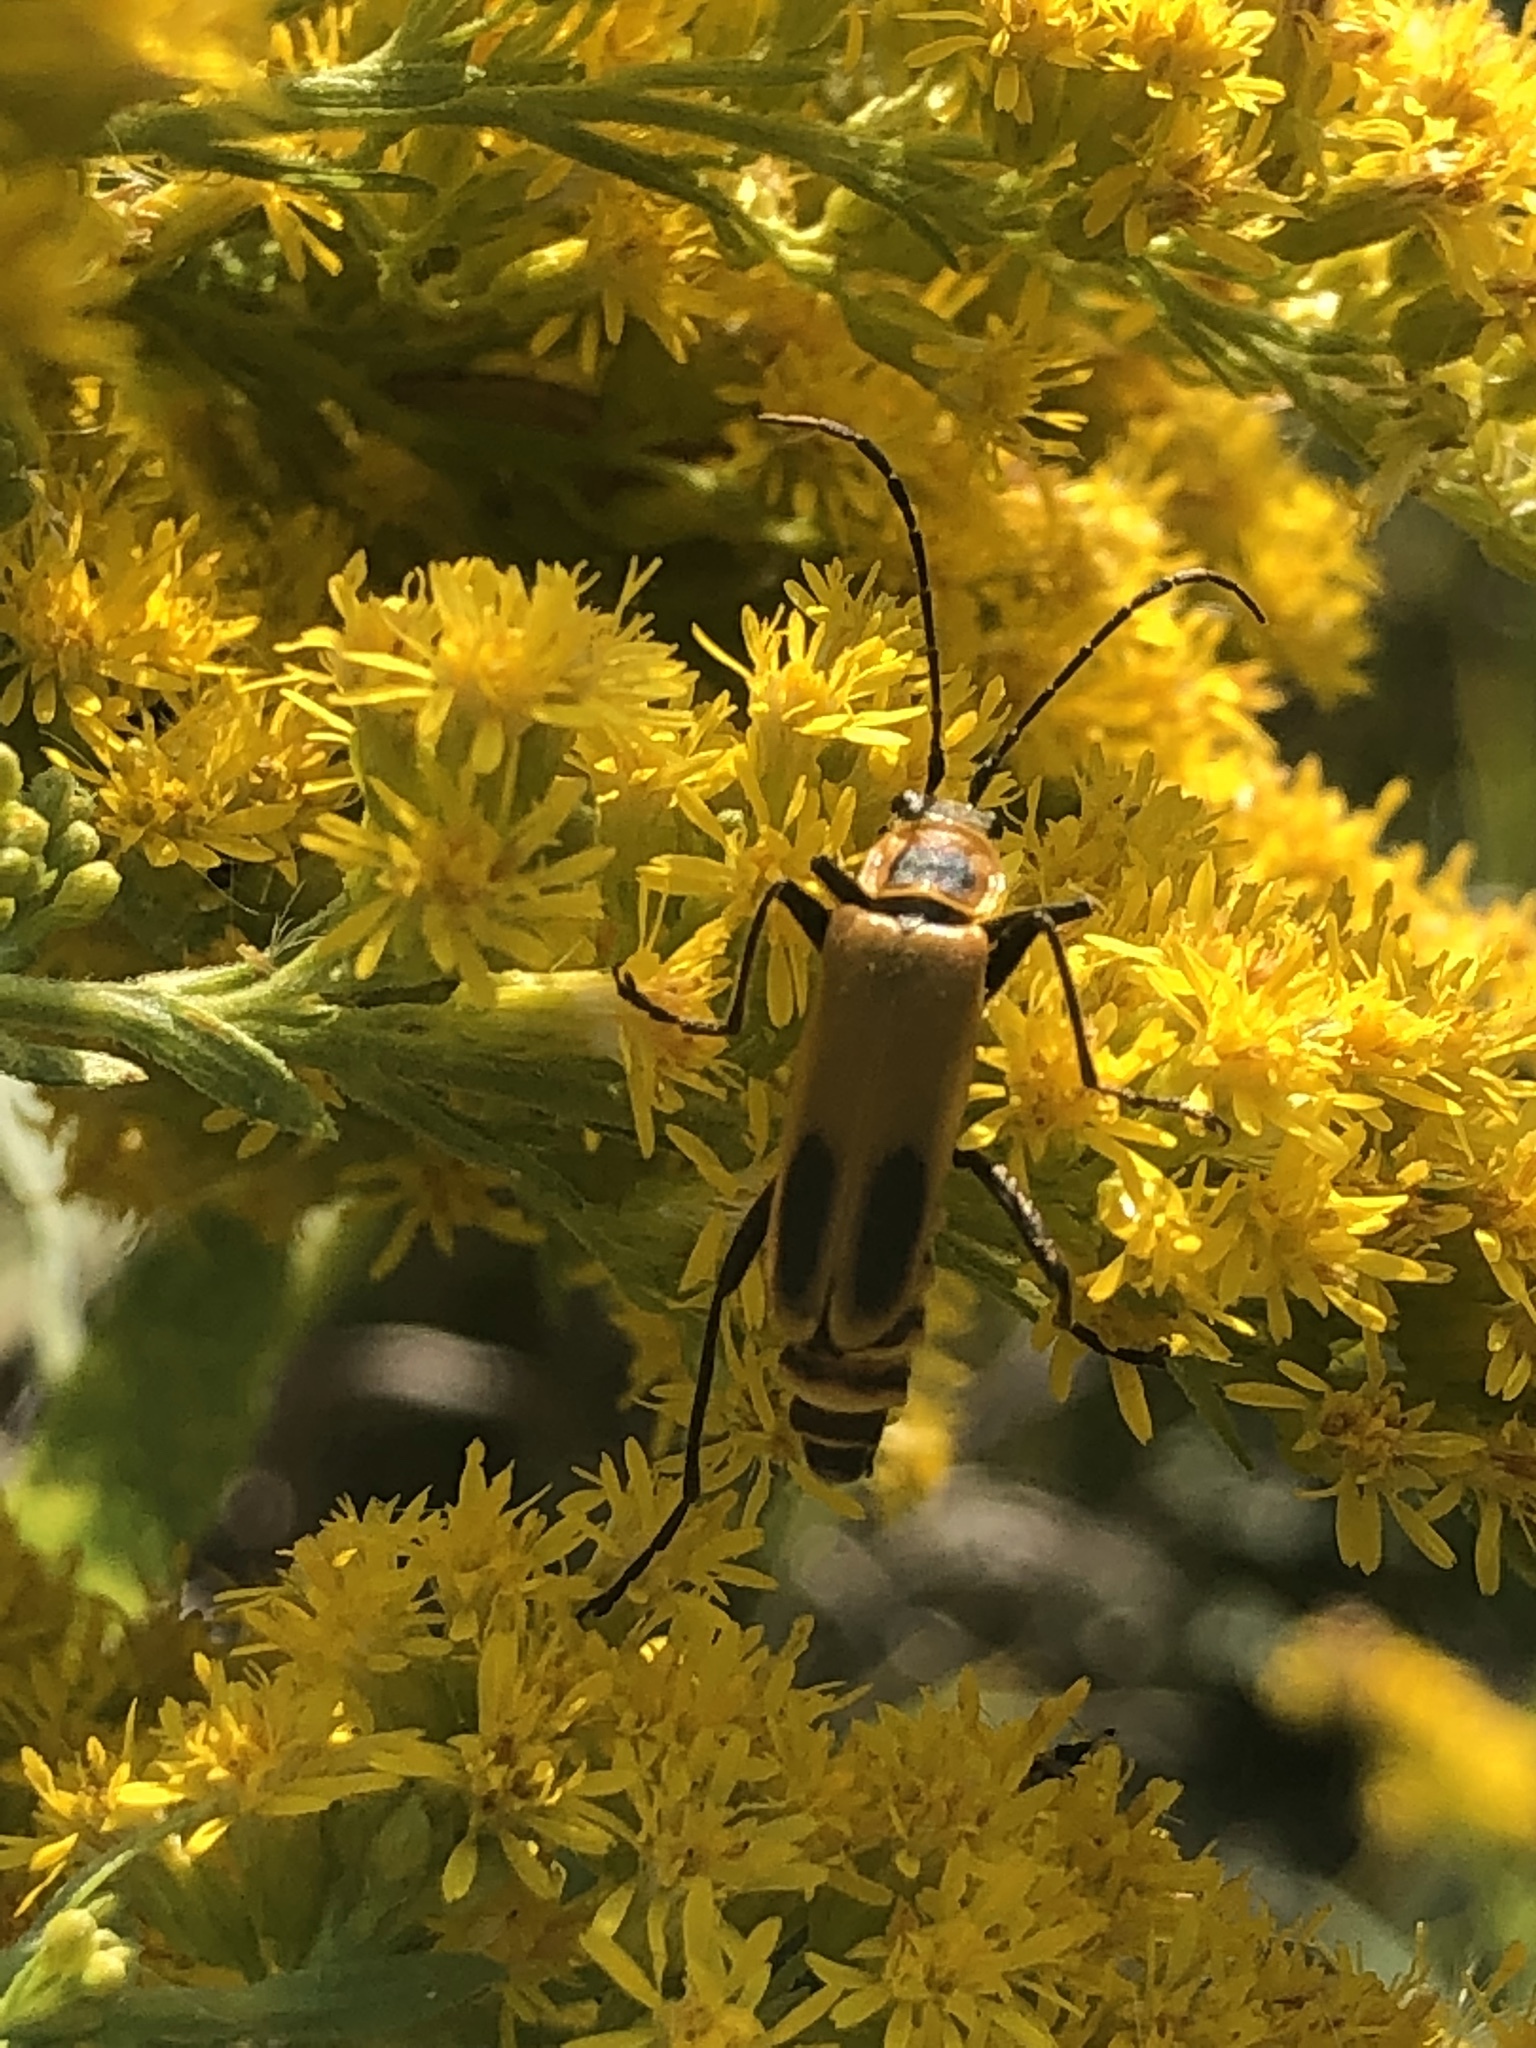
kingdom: Animalia
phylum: Arthropoda
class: Insecta
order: Coleoptera
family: Cantharidae
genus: Chauliognathus
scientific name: Chauliognathus pensylvanicus
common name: Goldenrod soldier beetle
